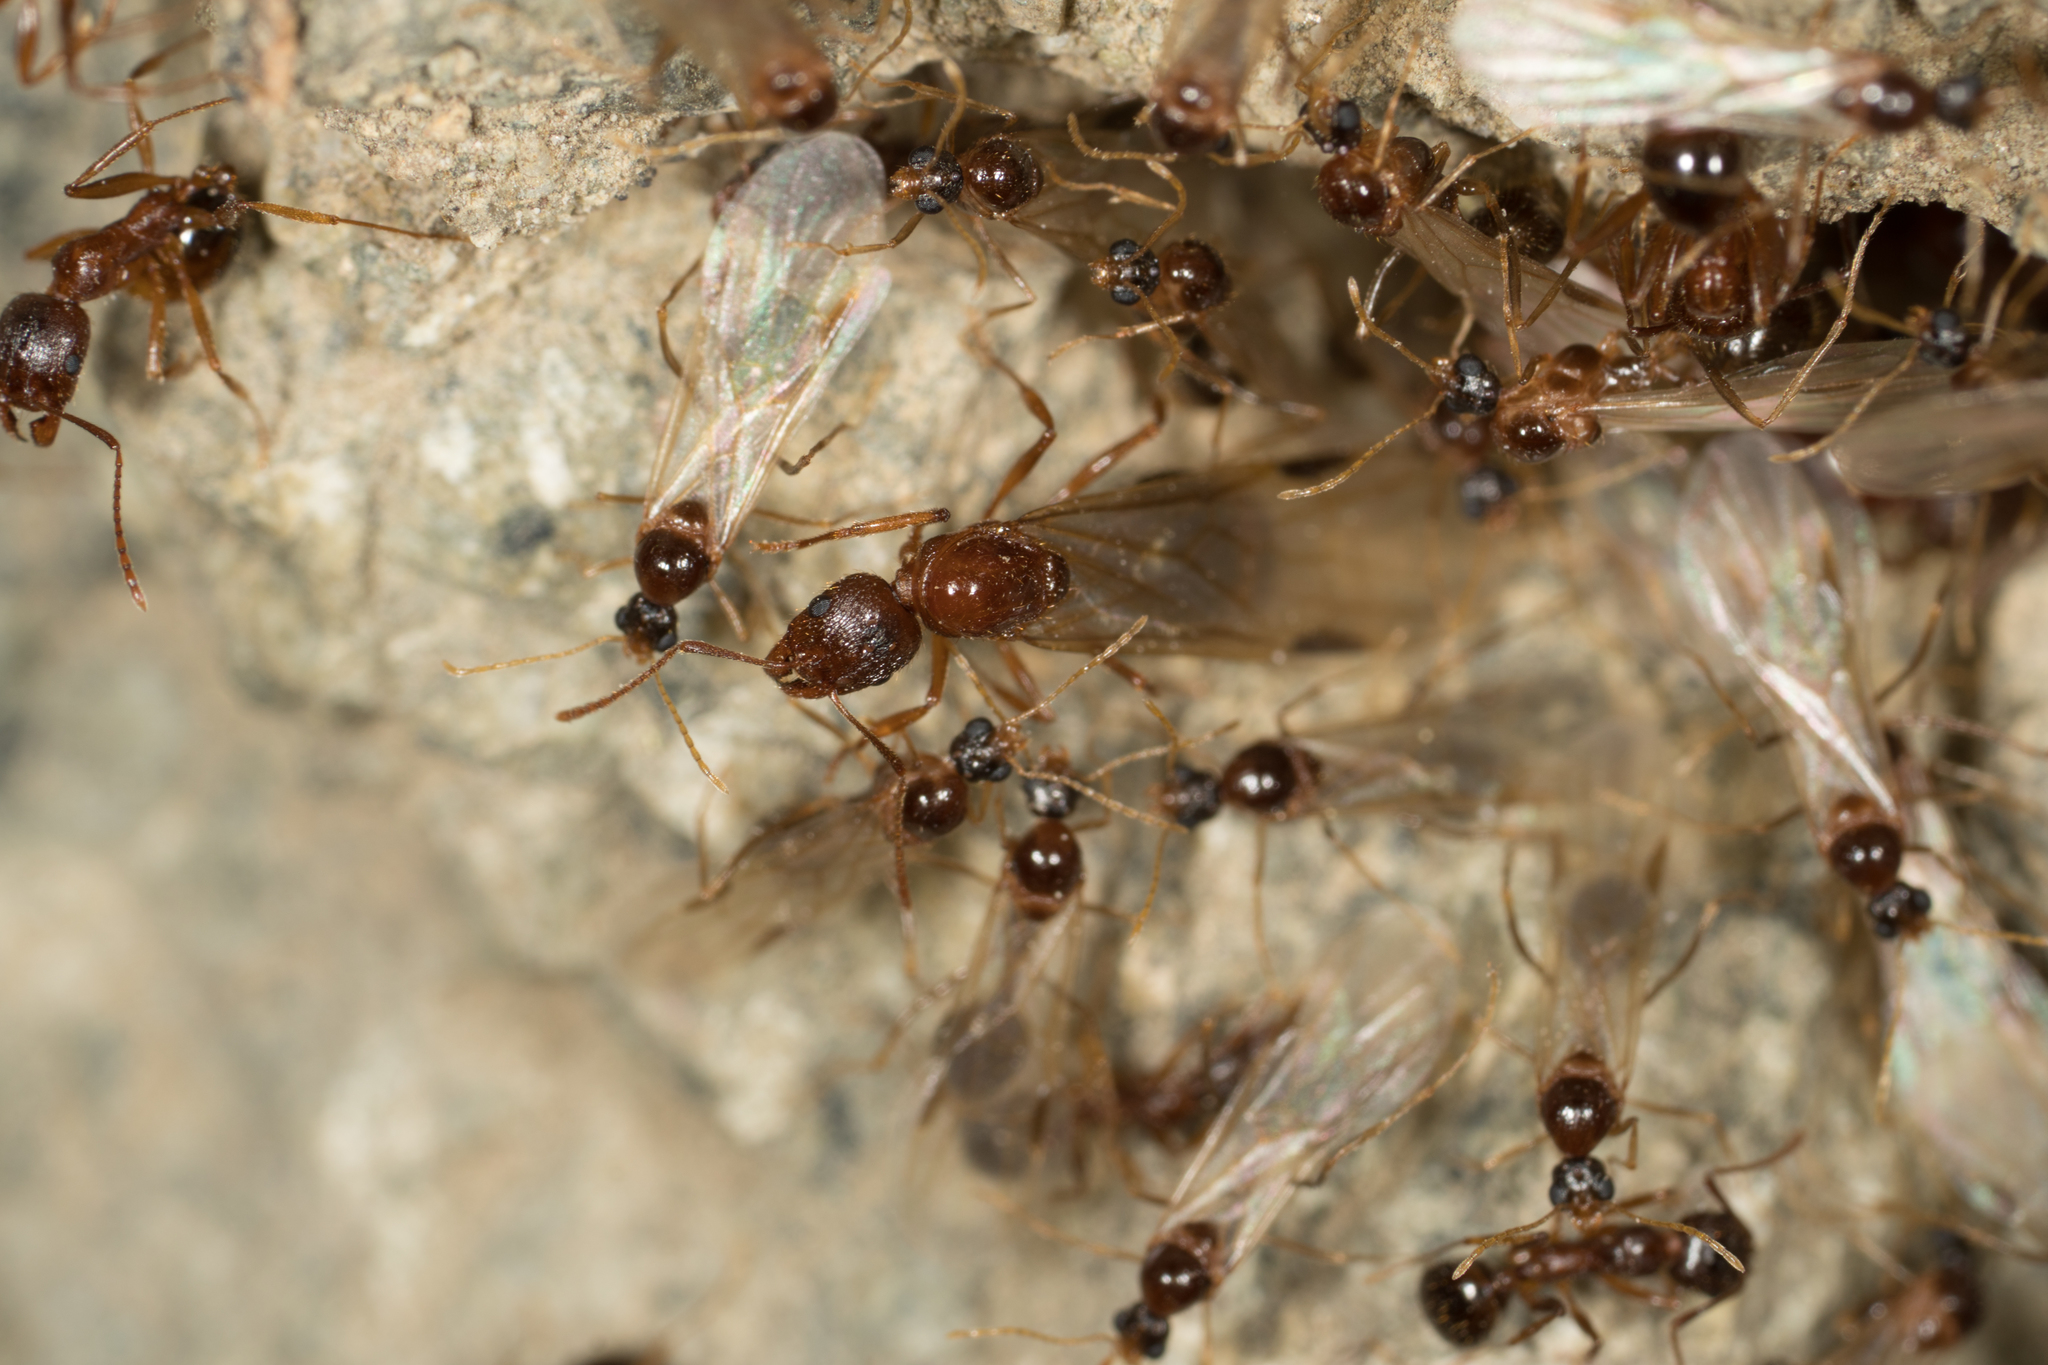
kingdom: Animalia
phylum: Arthropoda
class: Insecta
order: Hymenoptera
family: Formicidae
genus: Aphaenogaster
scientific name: Aphaenogaster occidentalis
